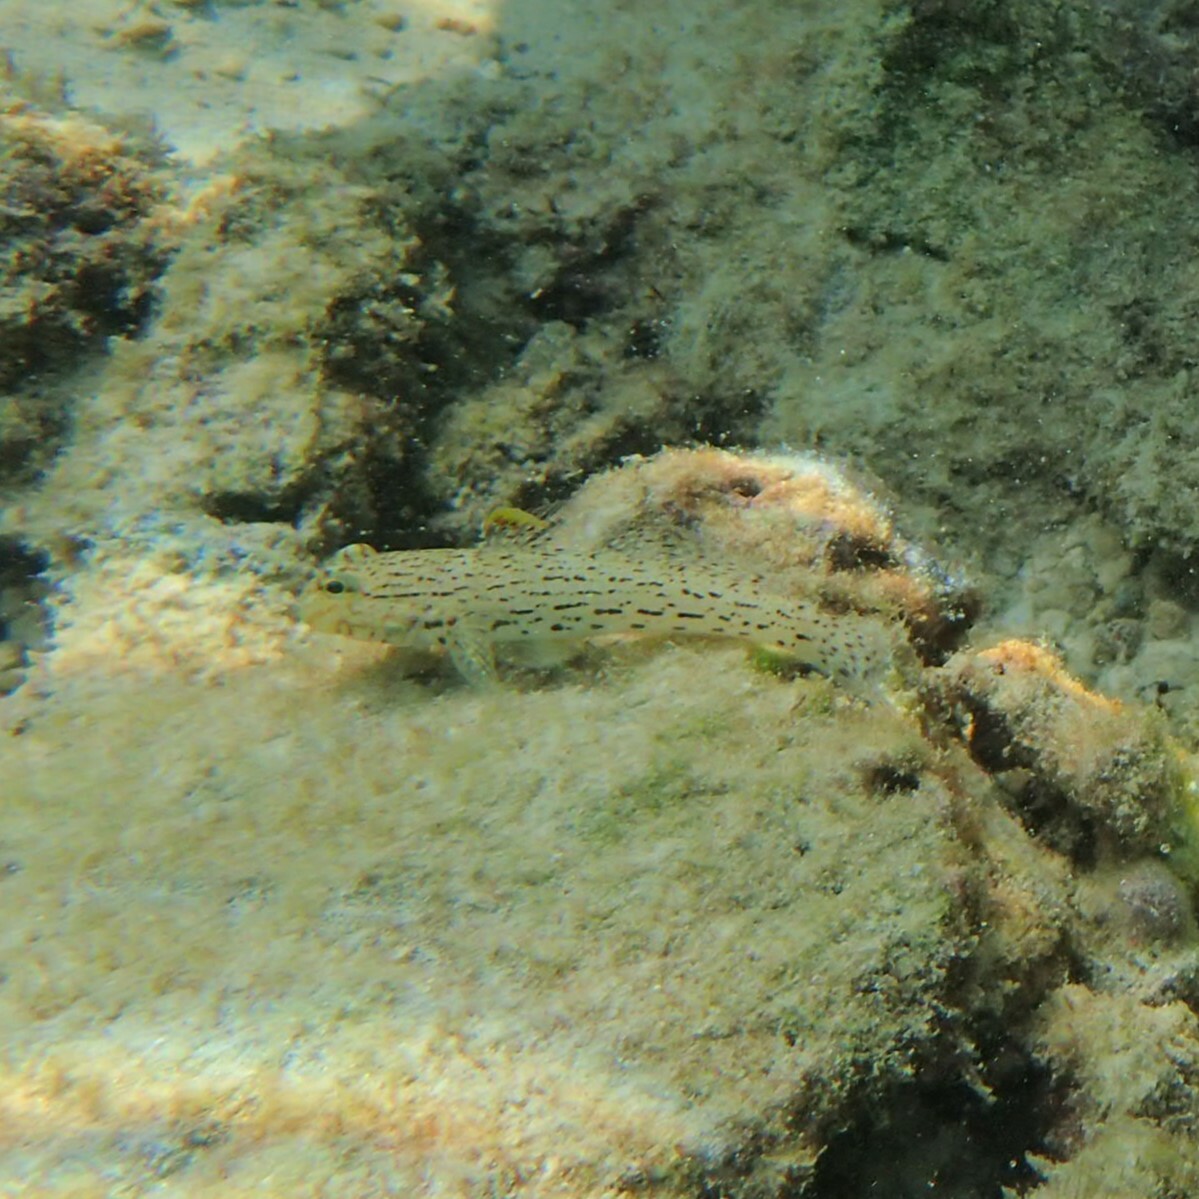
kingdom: Animalia
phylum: Chordata
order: Perciformes
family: Gobiidae
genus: Istigobius
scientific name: Istigobius ornatus
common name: Ornate goby
